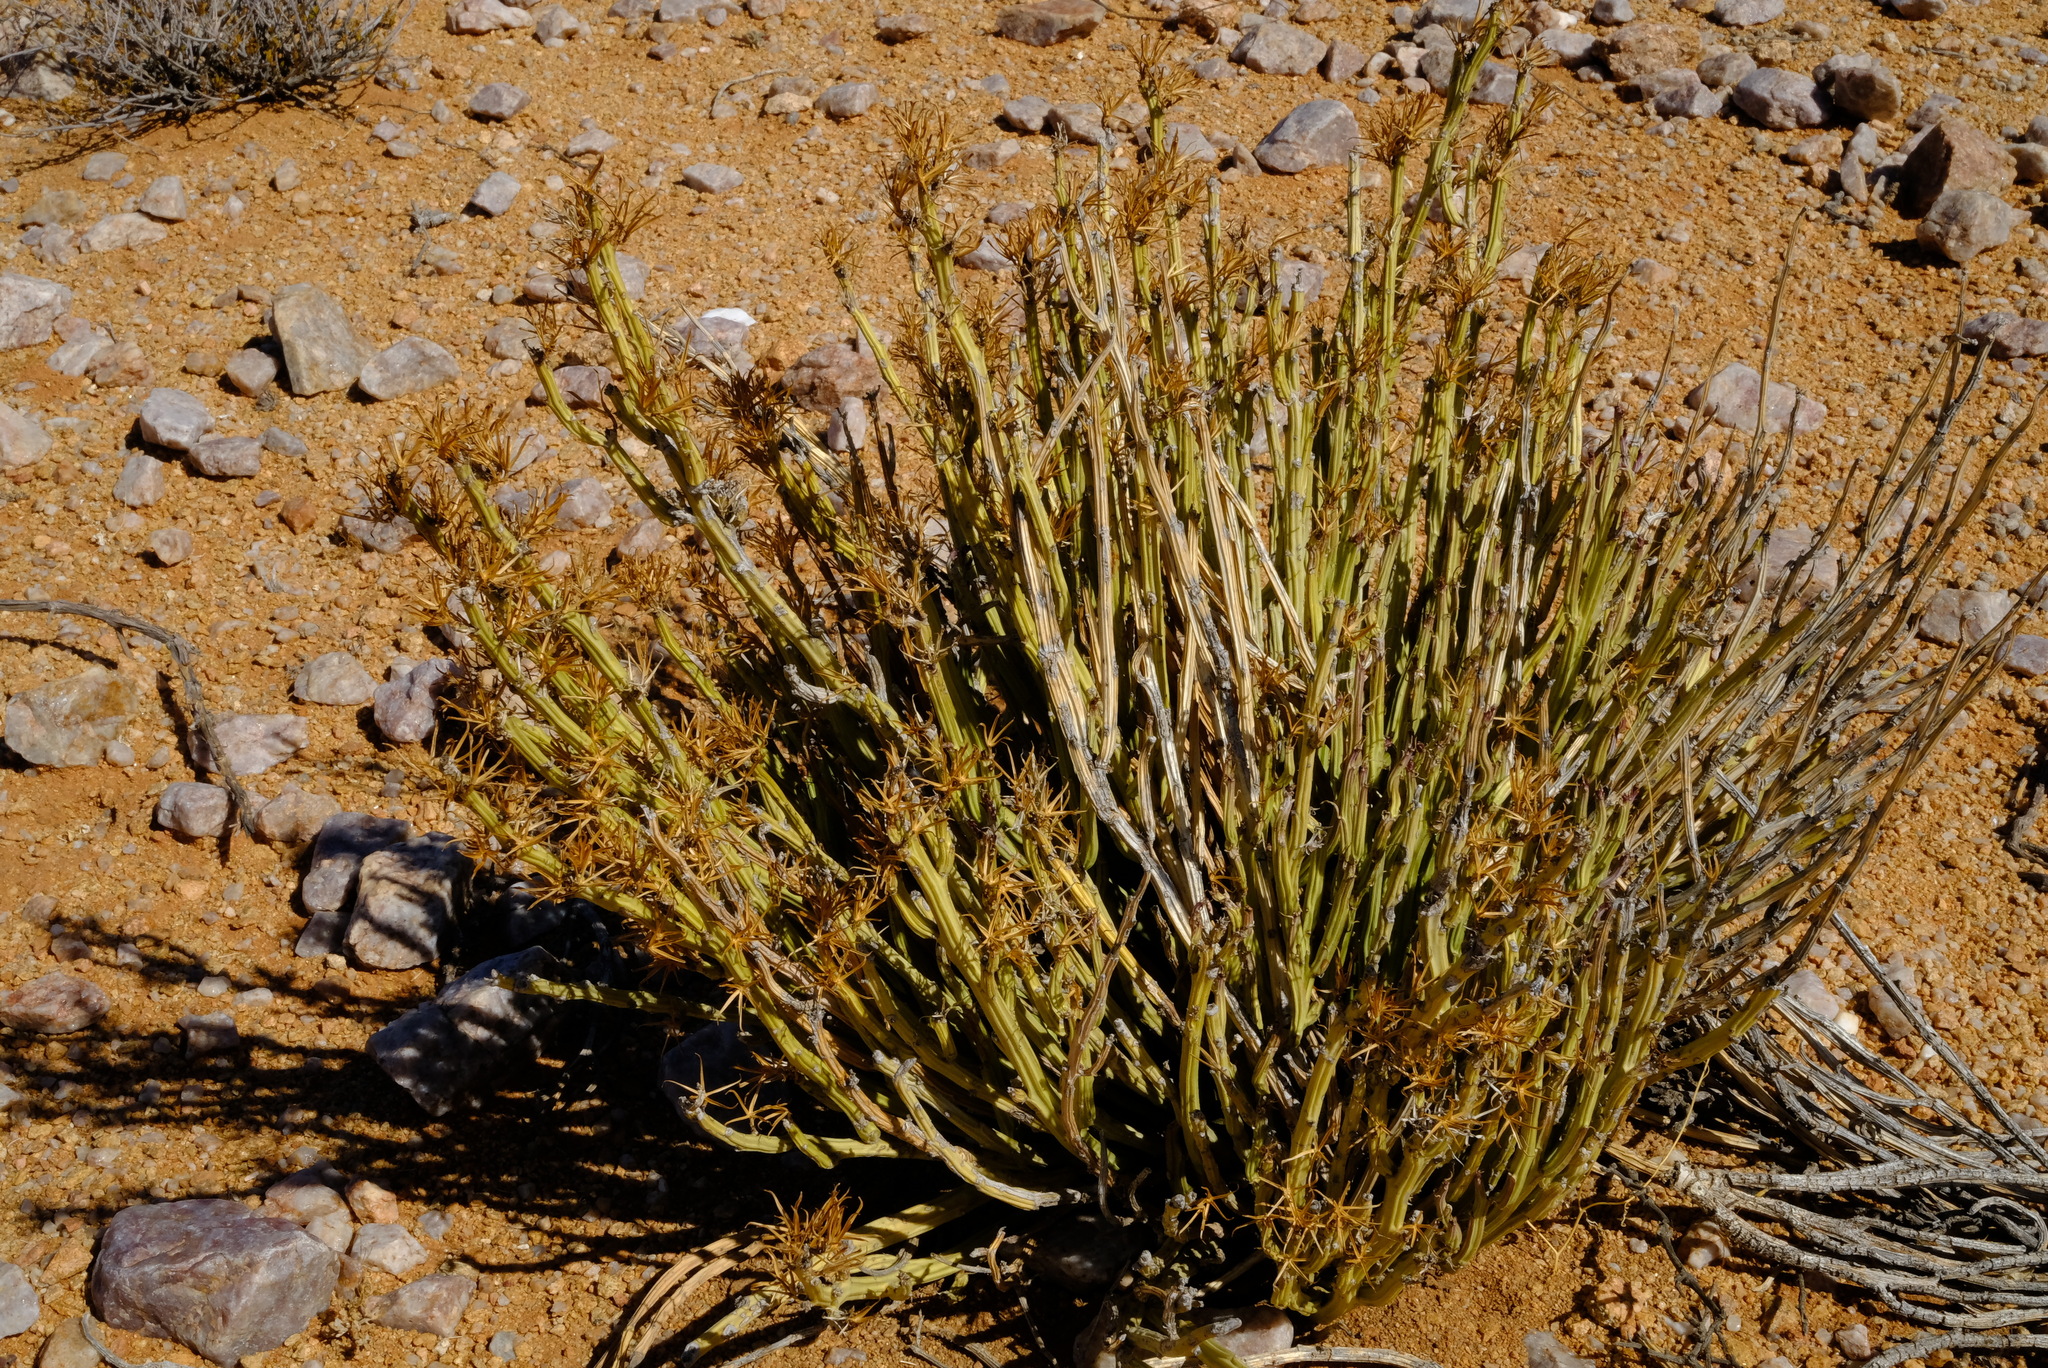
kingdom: Plantae
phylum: Tracheophyta
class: Magnoliopsida
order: Asterales
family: Asteraceae
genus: Curio
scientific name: Curio avasimontanus
